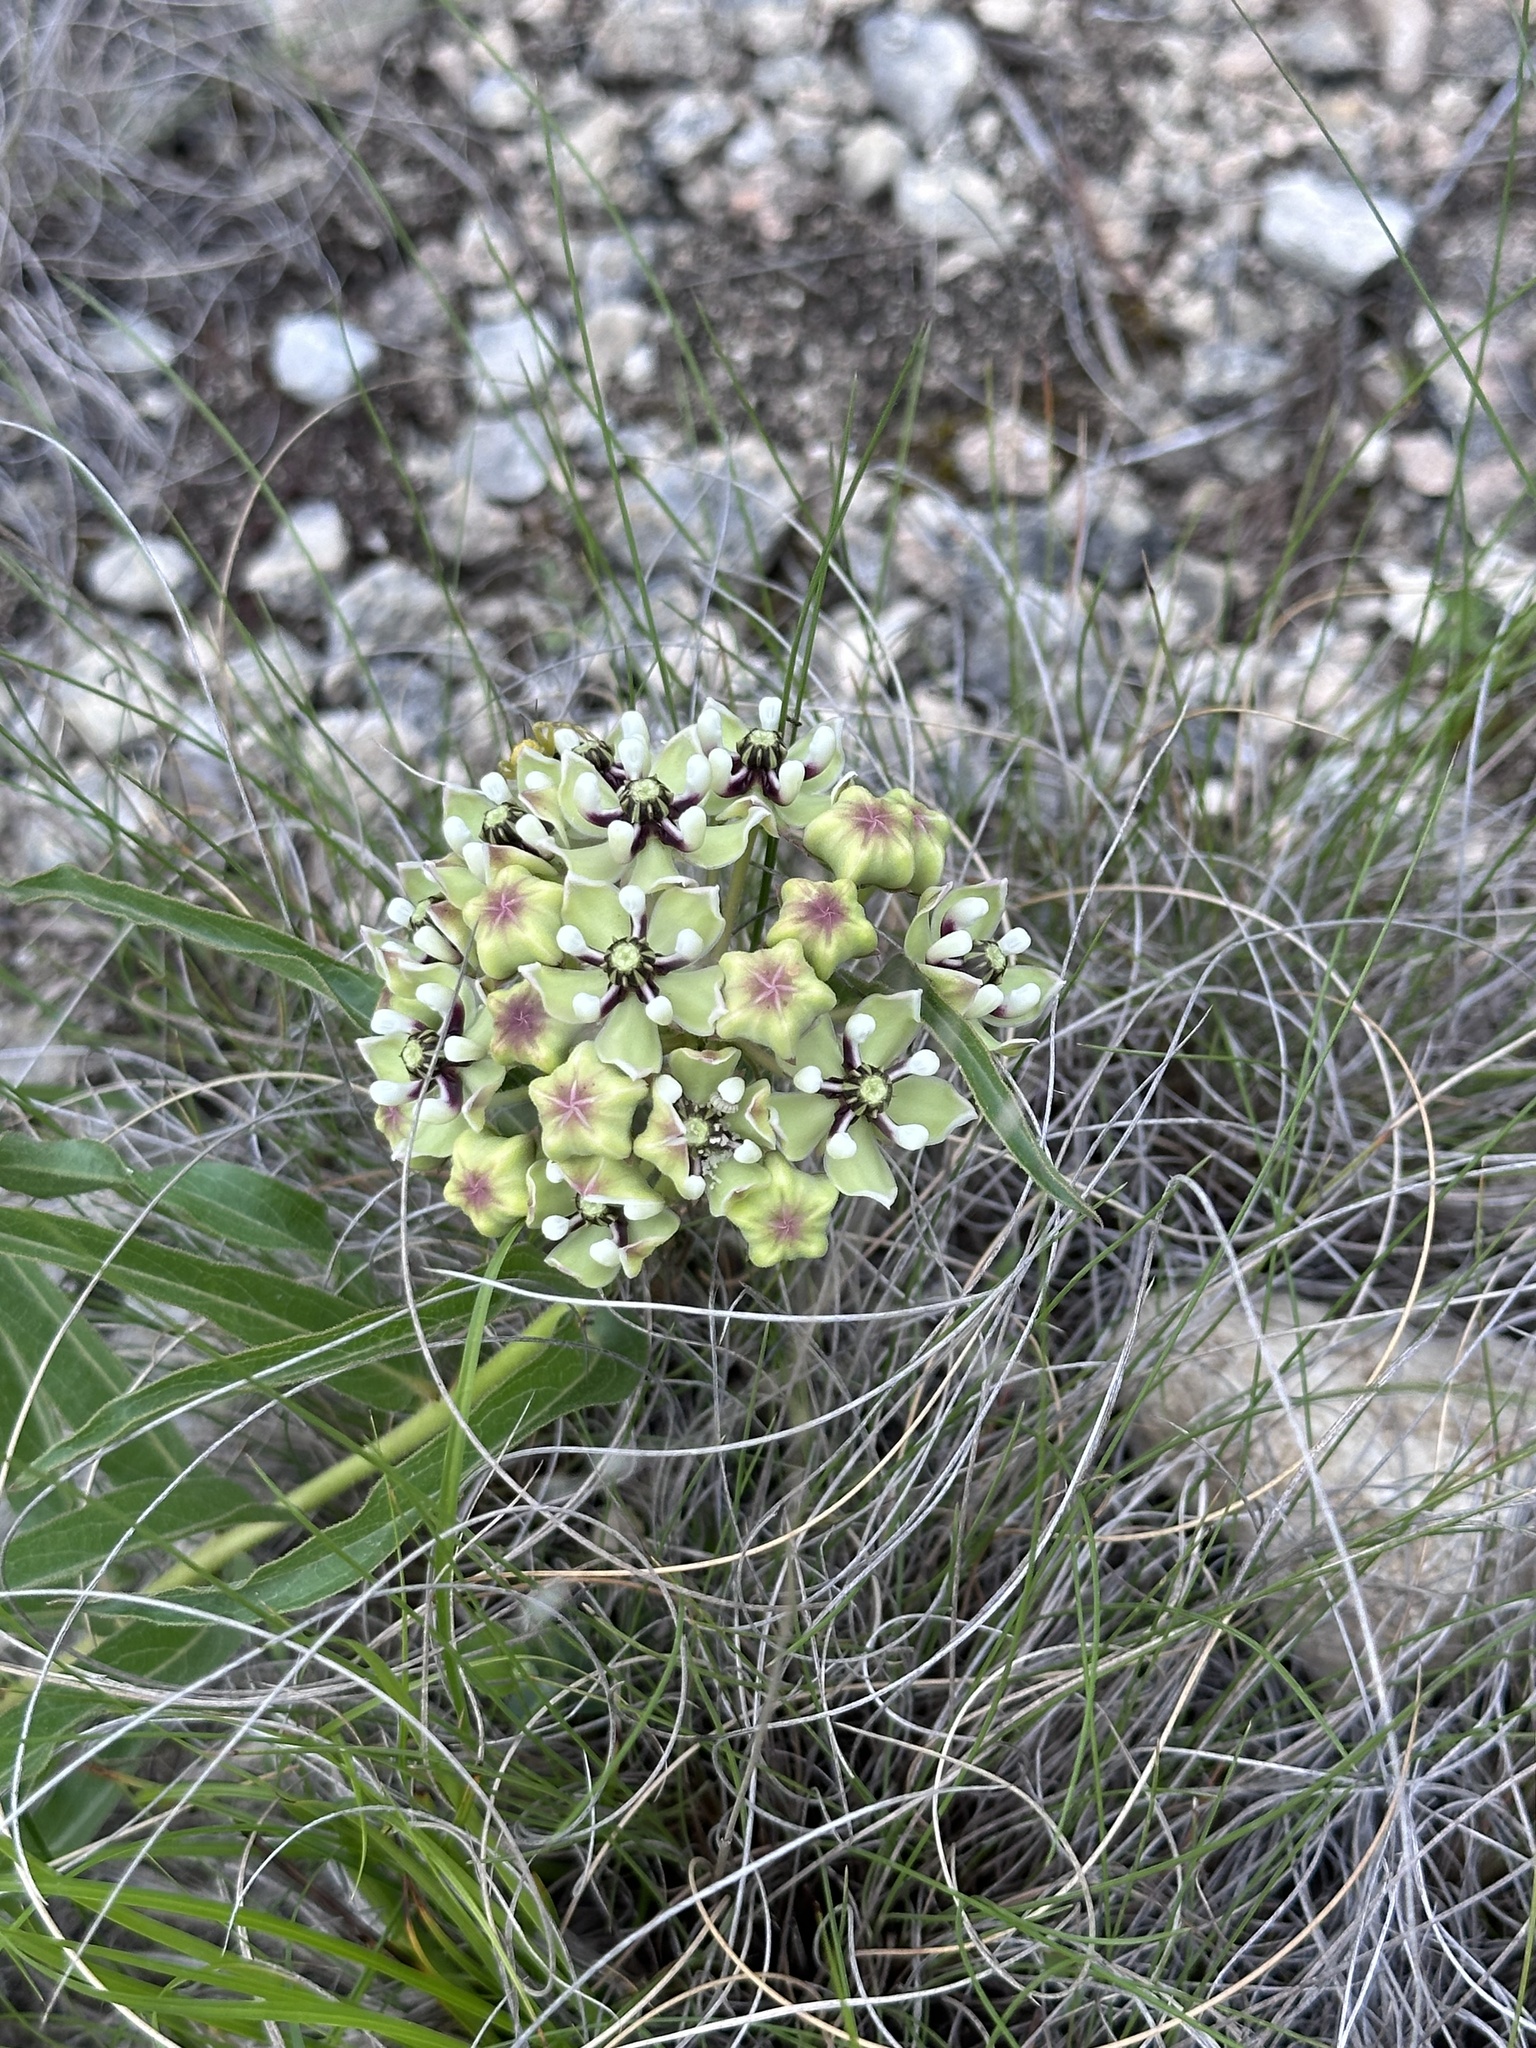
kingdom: Plantae
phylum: Tracheophyta
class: Magnoliopsida
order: Gentianales
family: Apocynaceae
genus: Asclepias
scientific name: Asclepias asperula
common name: Antelope horns
